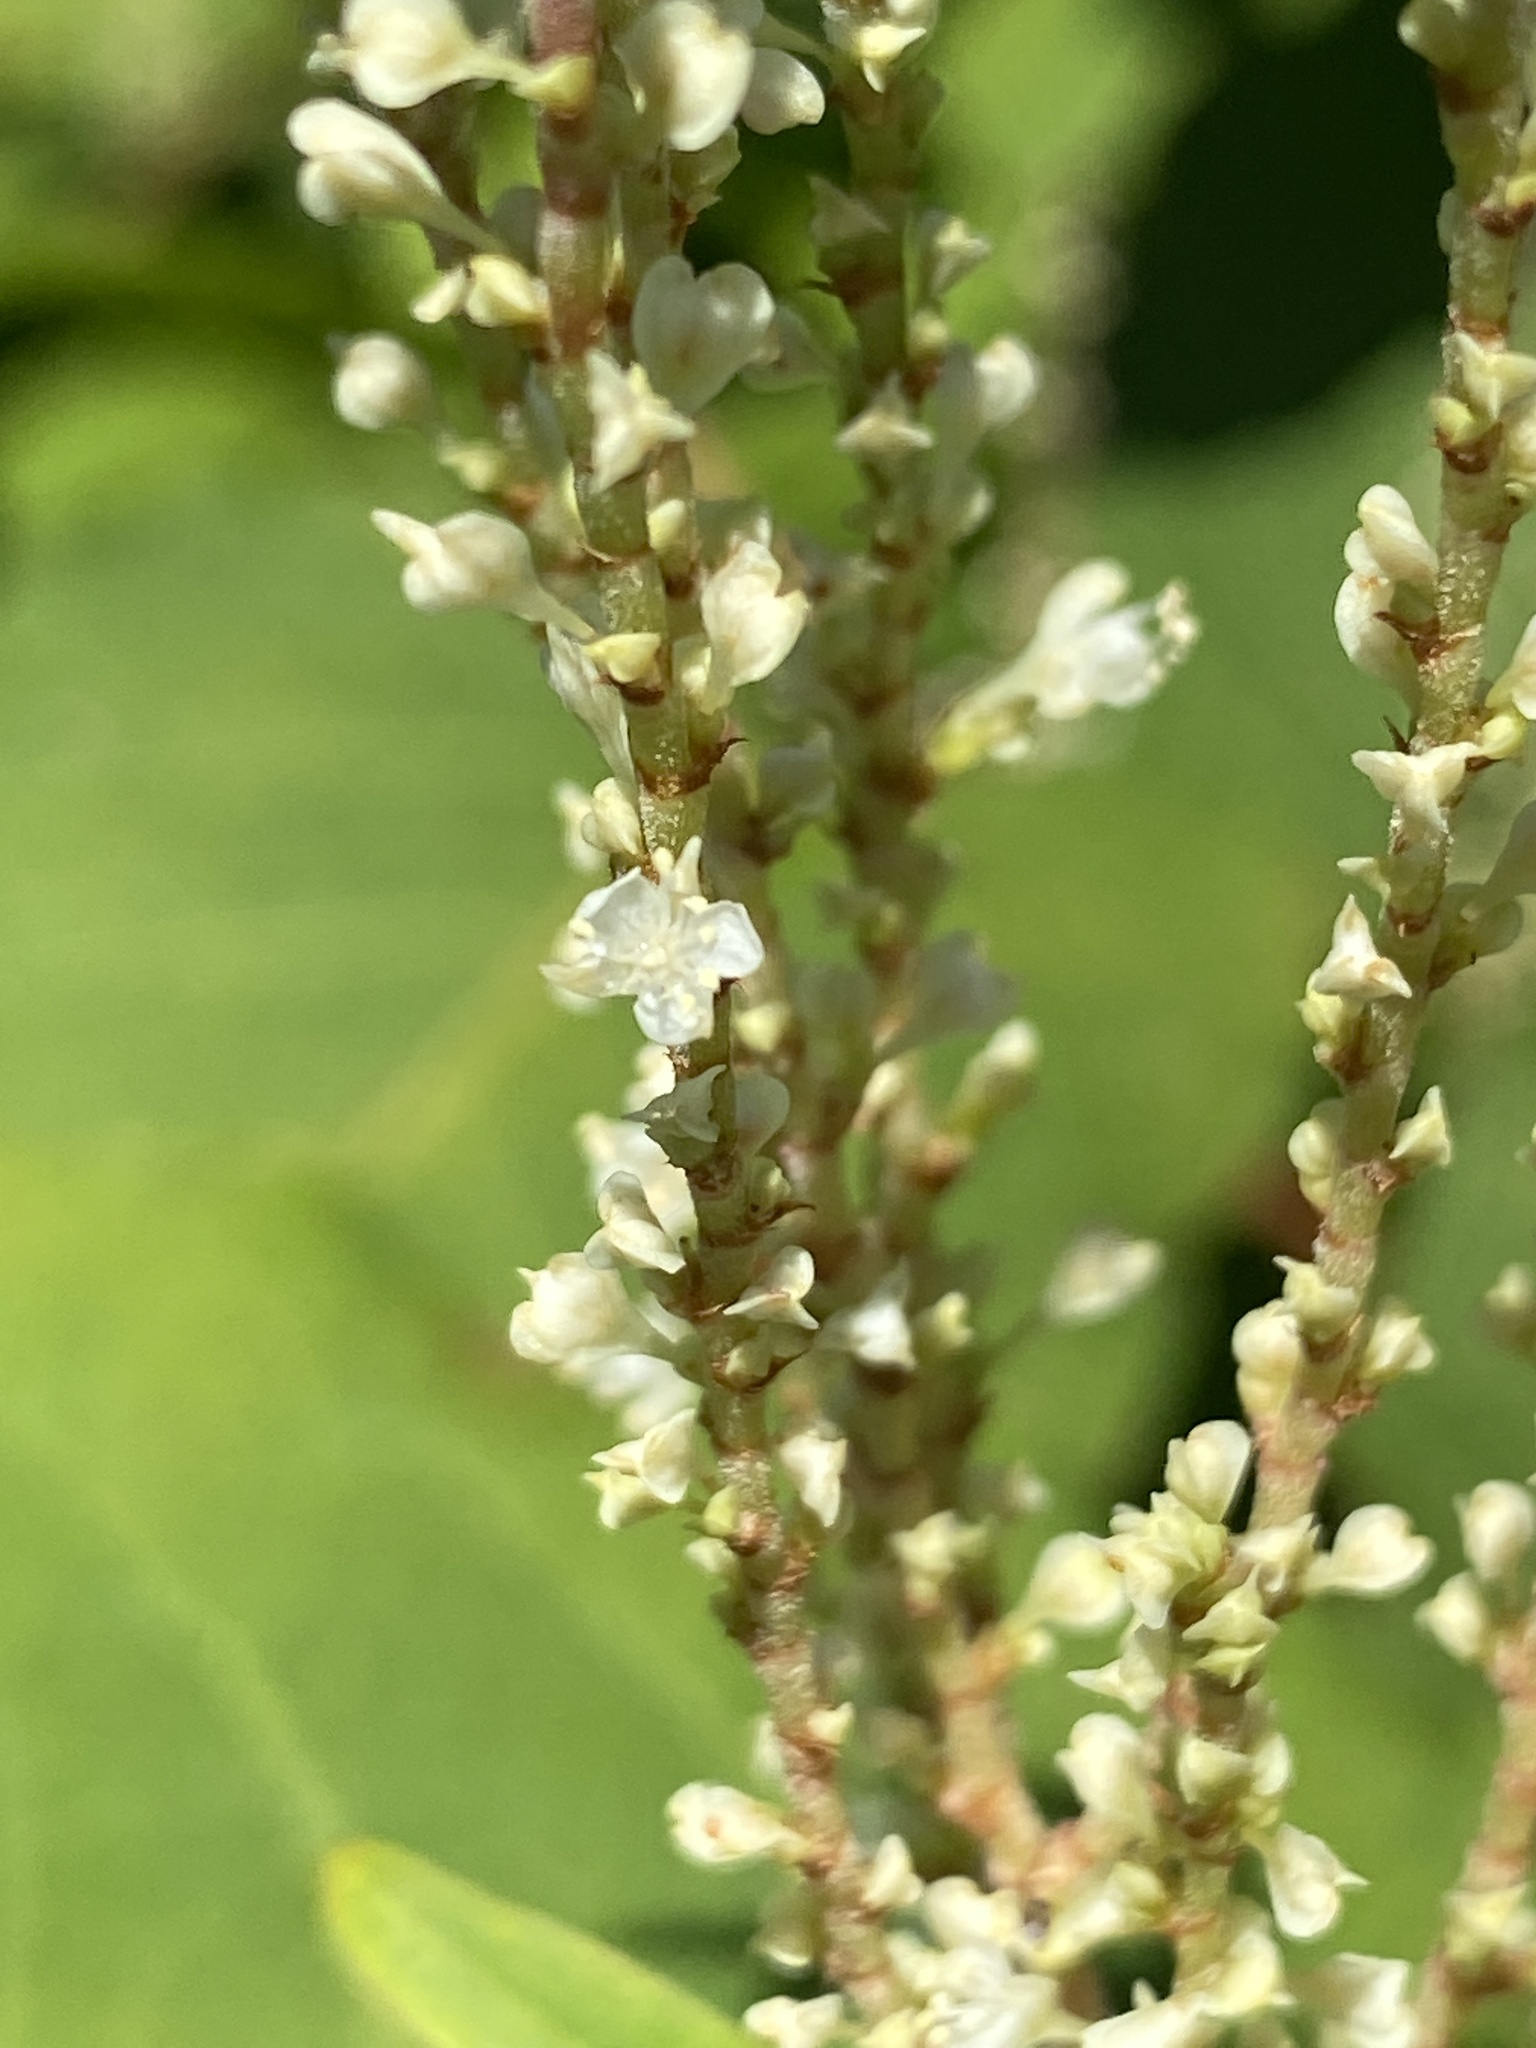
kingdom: Plantae
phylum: Tracheophyta
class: Magnoliopsida
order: Caryophyllales
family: Polygonaceae
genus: Reynoutria
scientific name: Reynoutria
